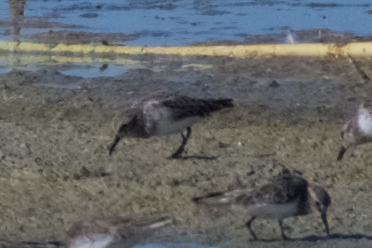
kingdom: Animalia
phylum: Chordata
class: Aves
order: Charadriiformes
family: Scolopacidae
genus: Calidris
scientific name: Calidris minutilla
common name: Least sandpiper
